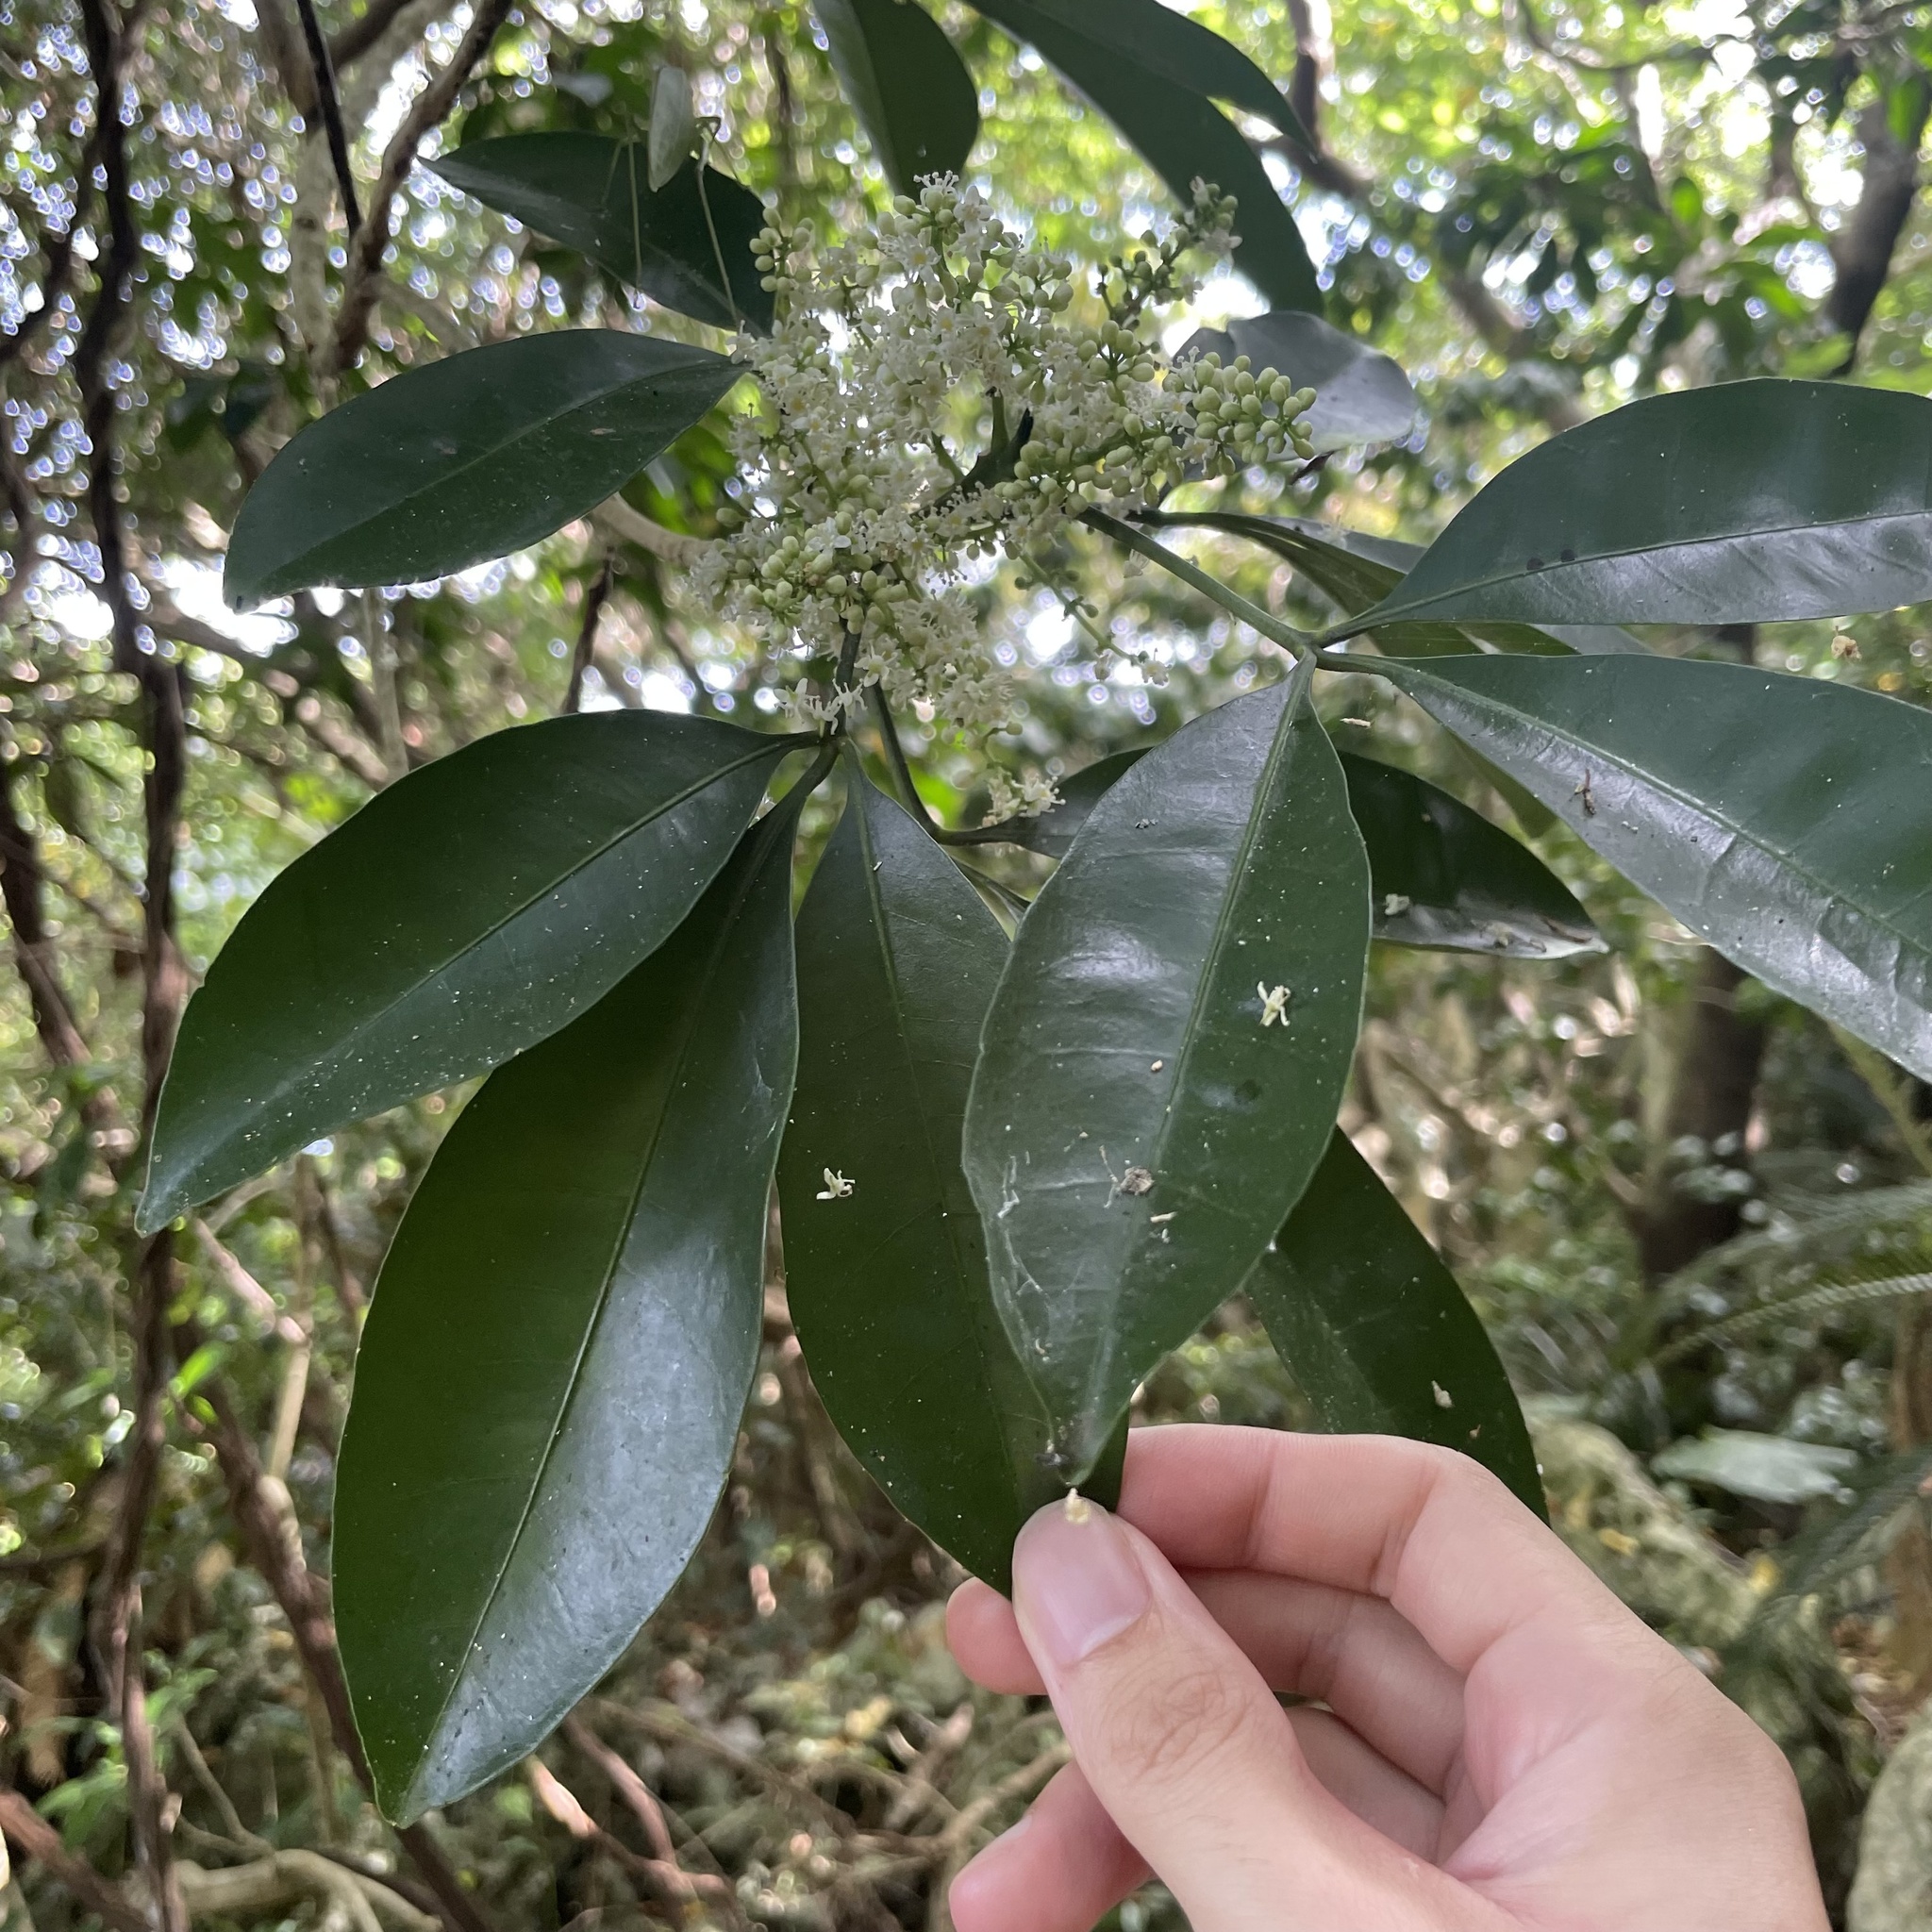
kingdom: Plantae
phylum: Tracheophyta
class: Magnoliopsida
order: Sapindales
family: Rutaceae
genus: Melicope
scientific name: Melicope triphylla
